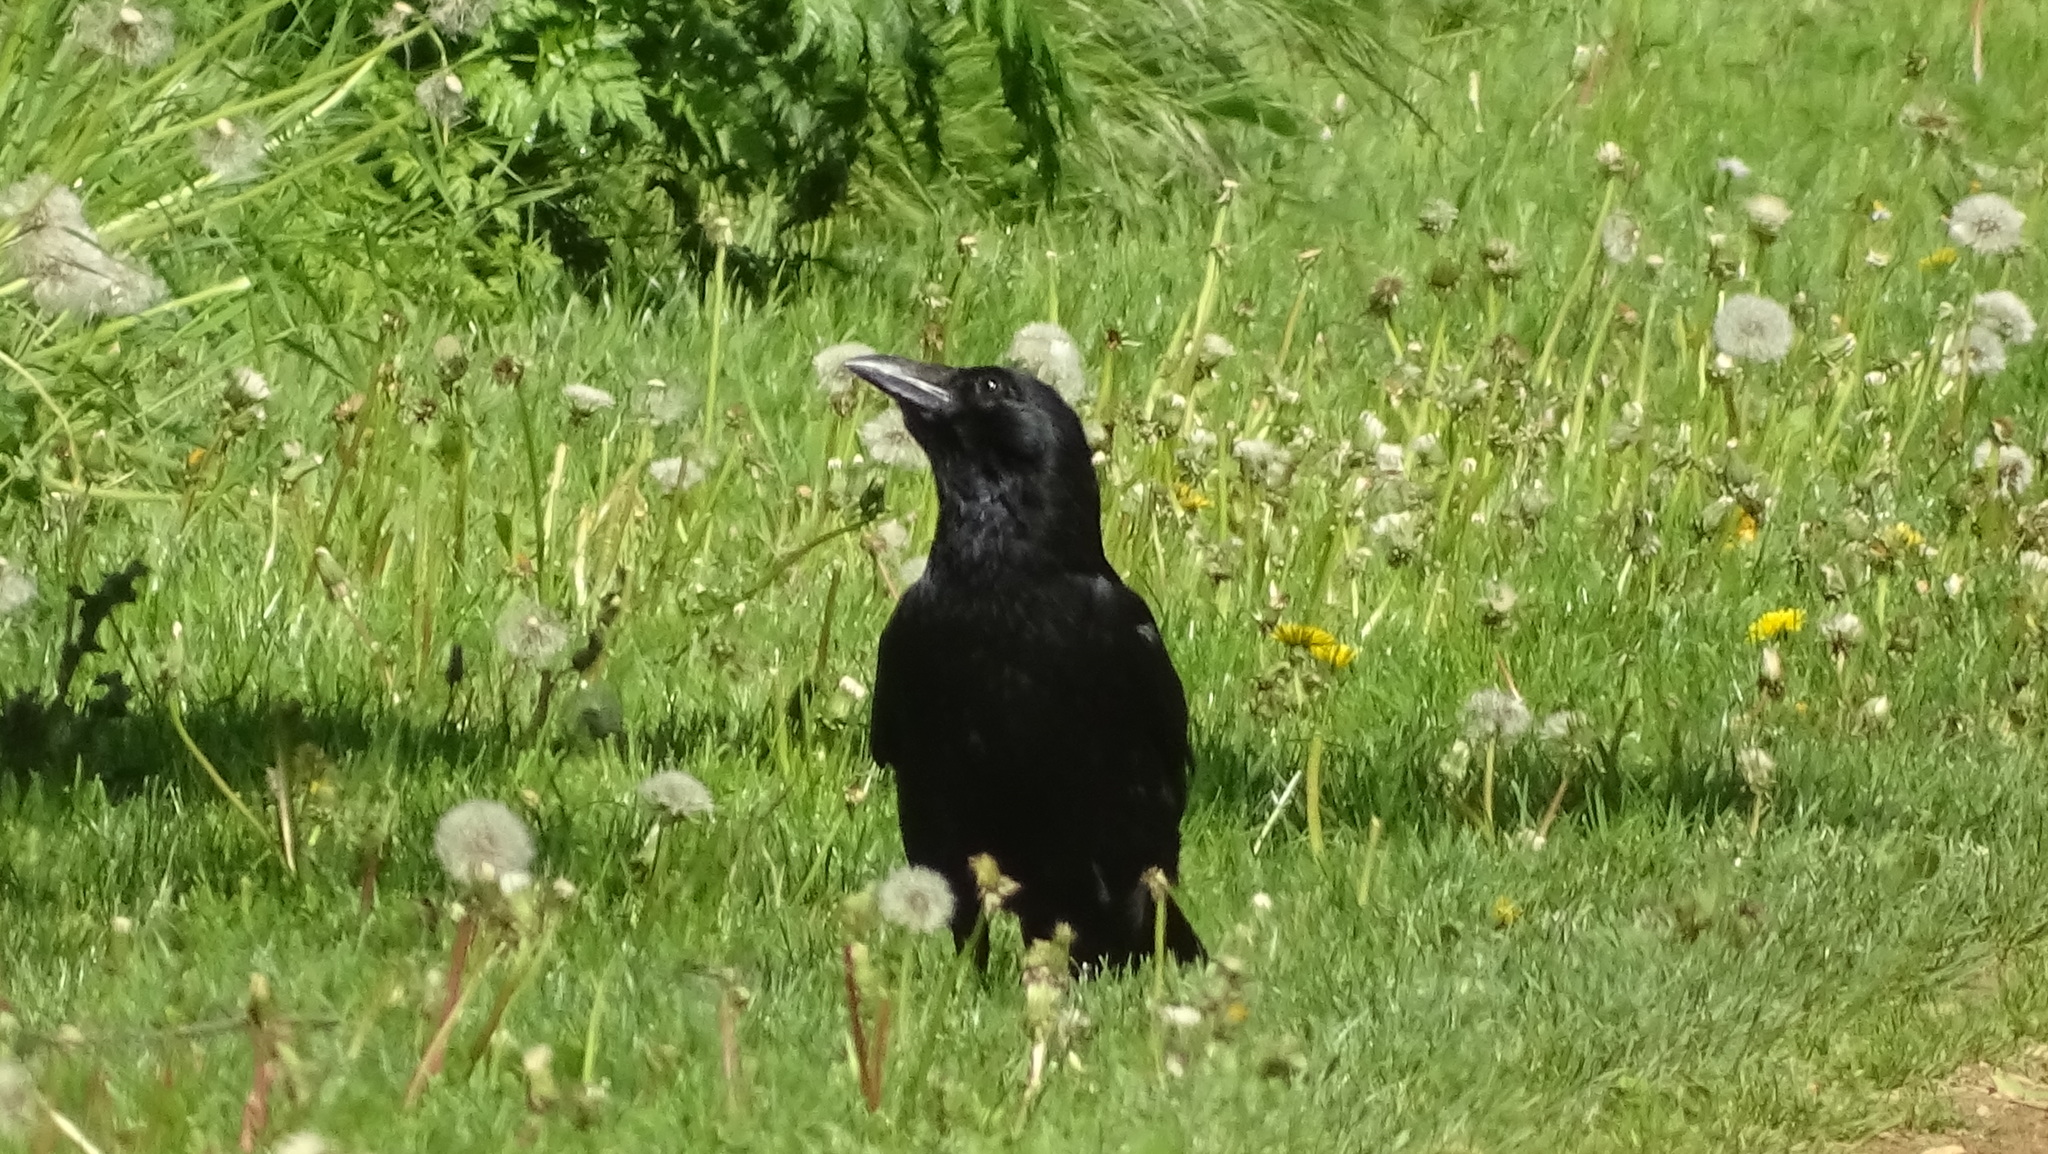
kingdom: Animalia
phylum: Chordata
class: Aves
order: Passeriformes
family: Corvidae
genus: Corvus
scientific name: Corvus corone
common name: Carrion crow
